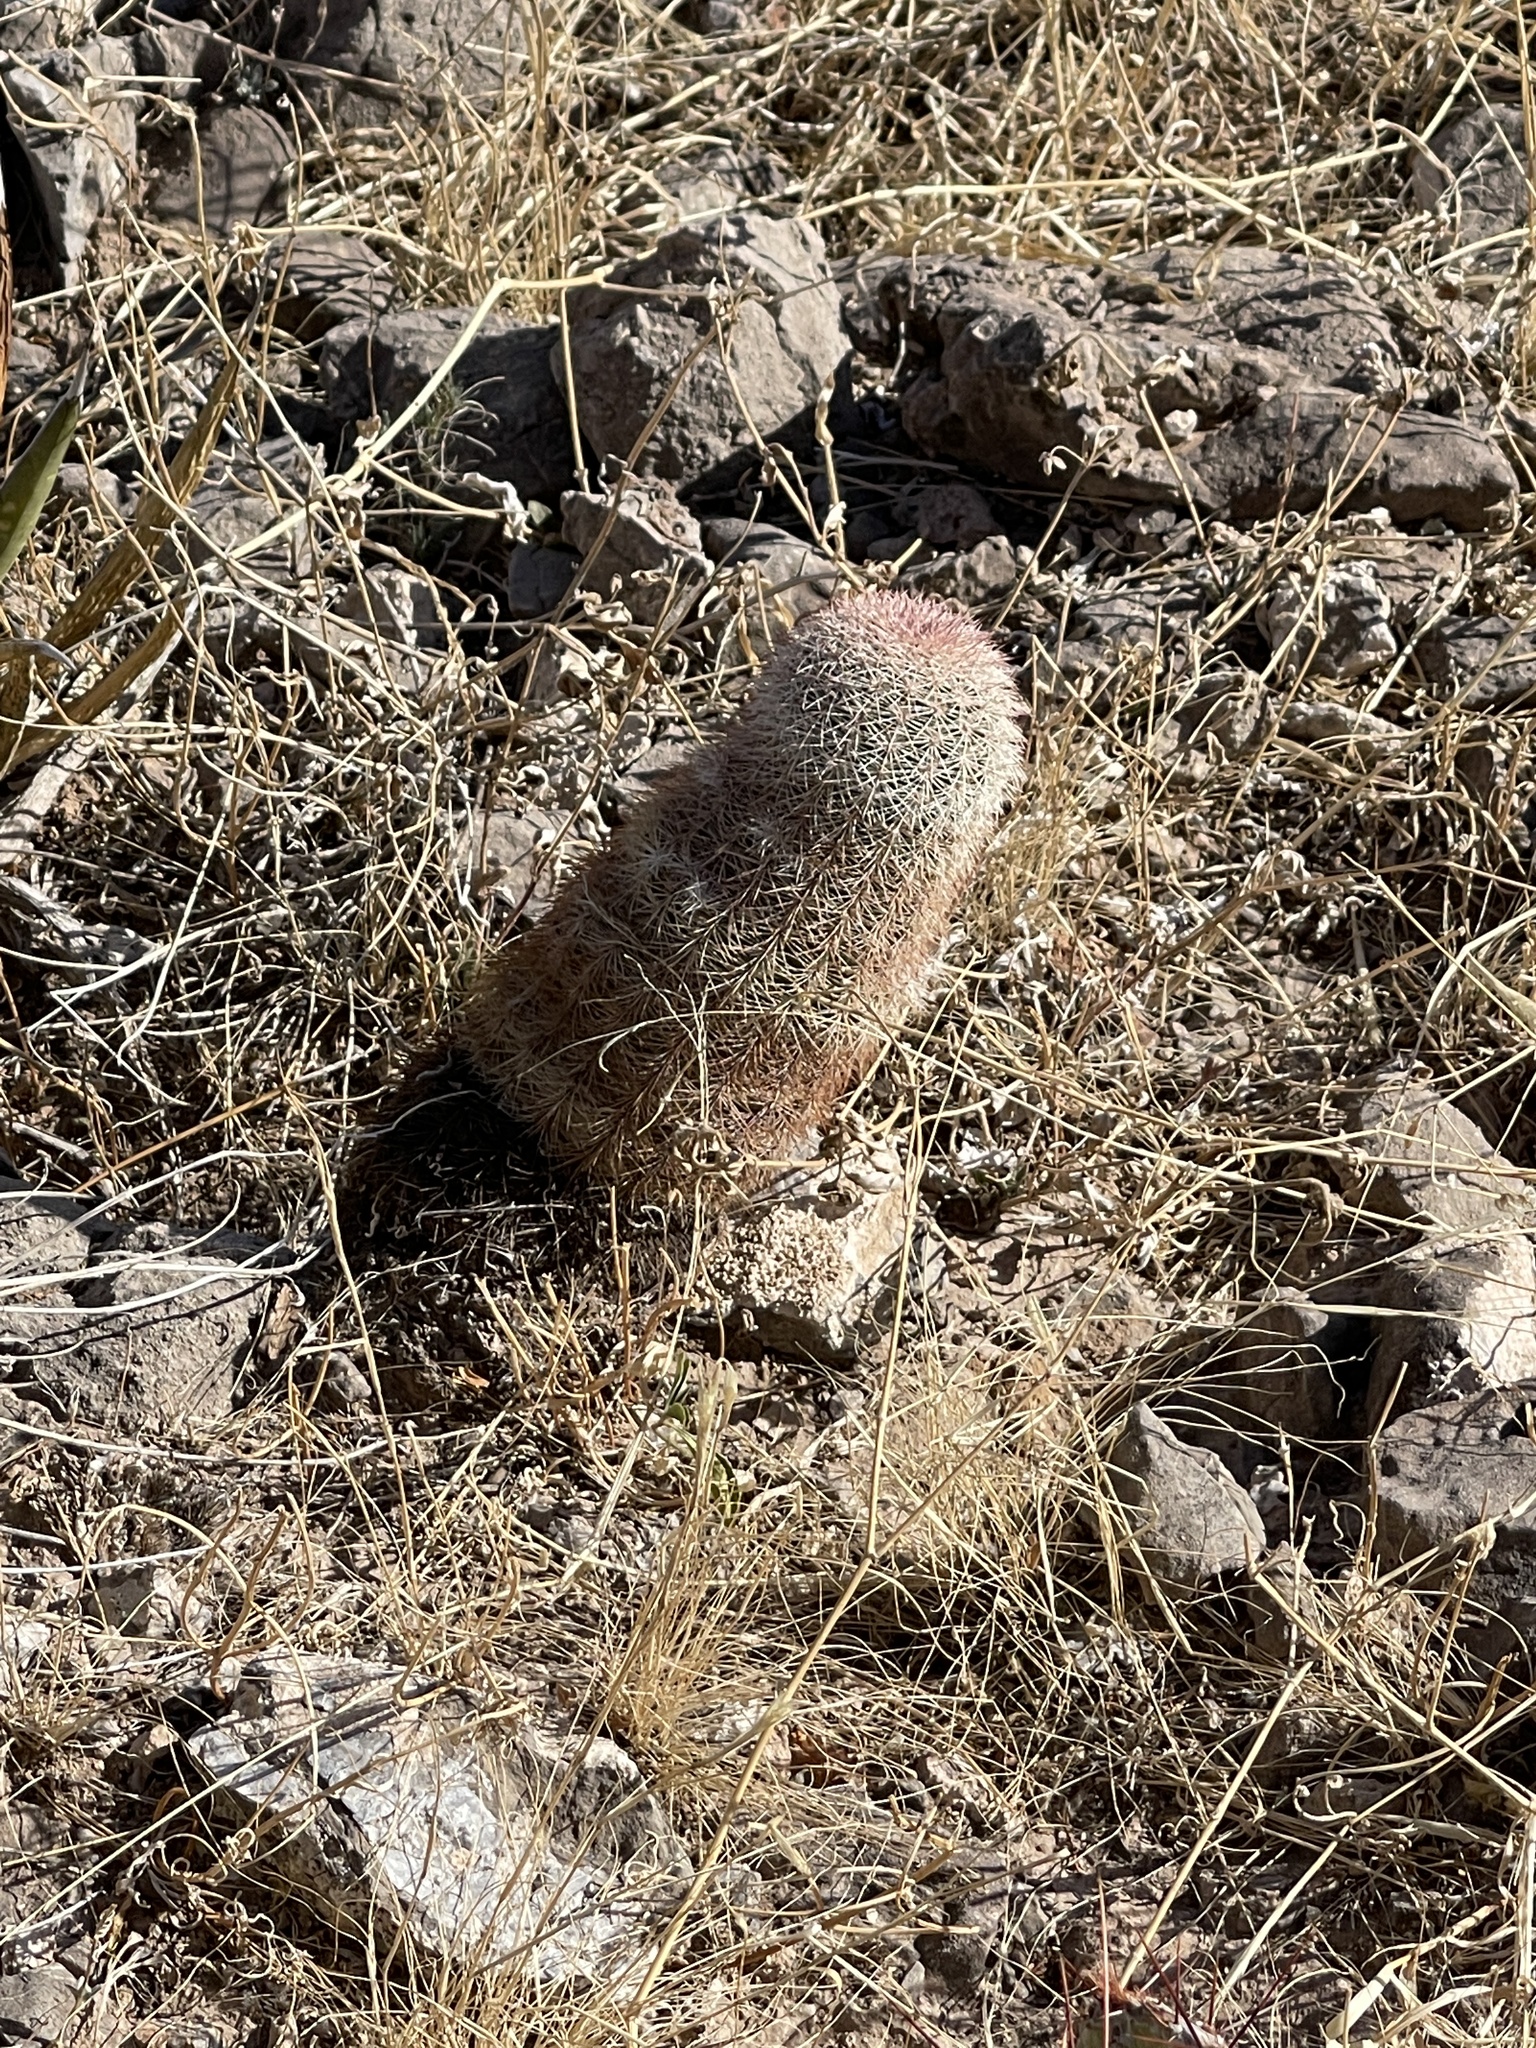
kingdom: Plantae
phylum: Tracheophyta
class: Magnoliopsida
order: Caryophyllales
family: Cactaceae
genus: Echinocereus
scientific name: Echinocereus dasyacanthus
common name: Spiny hedgehog cactus
